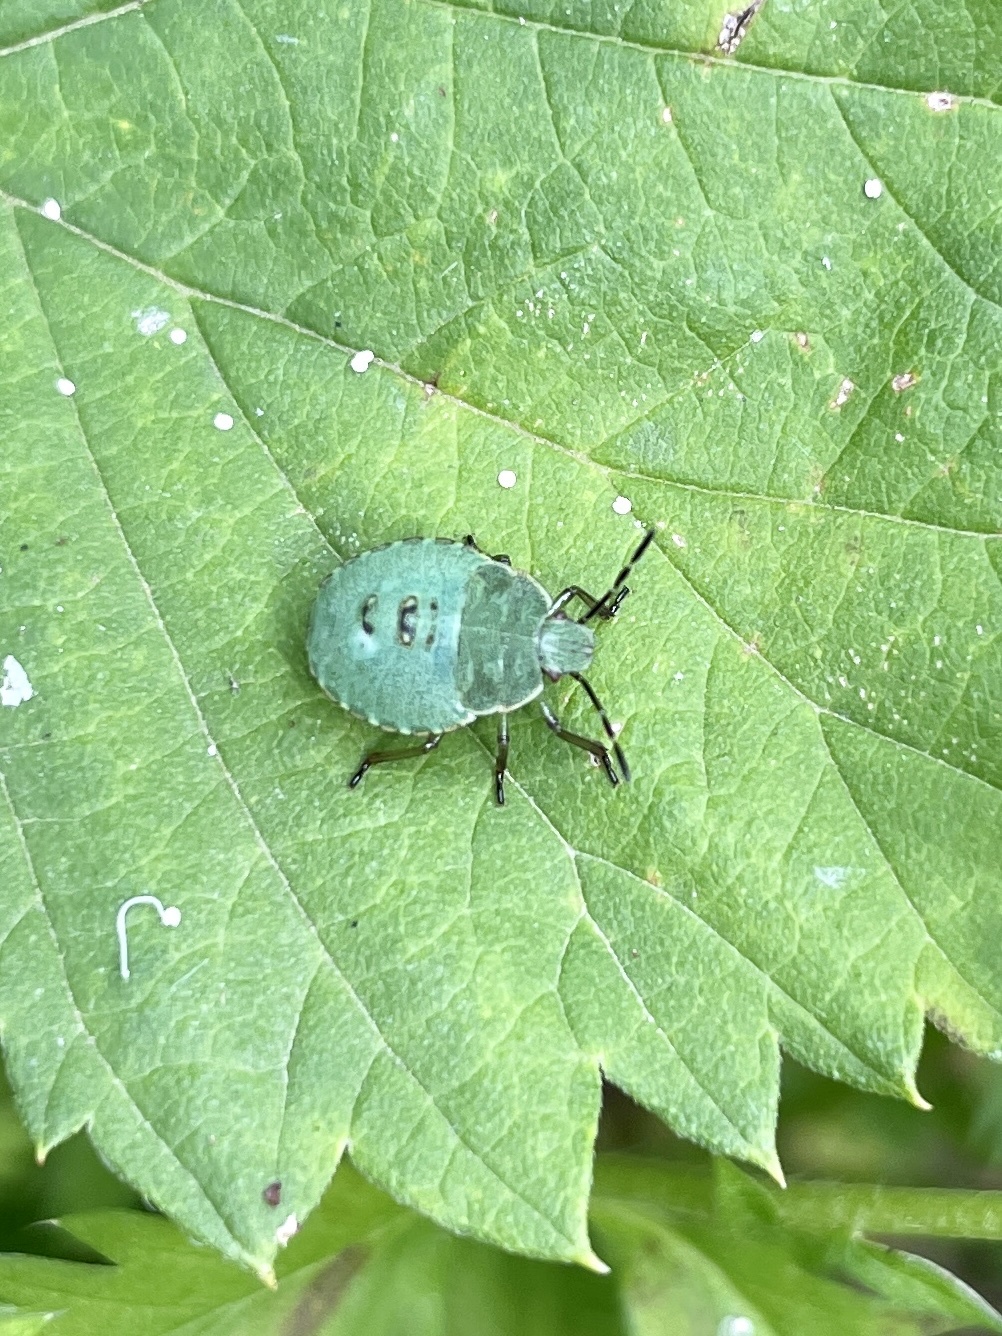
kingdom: Animalia
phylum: Arthropoda
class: Insecta
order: Hemiptera
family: Pentatomidae
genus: Palomena
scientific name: Palomena prasina
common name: Green shieldbug
